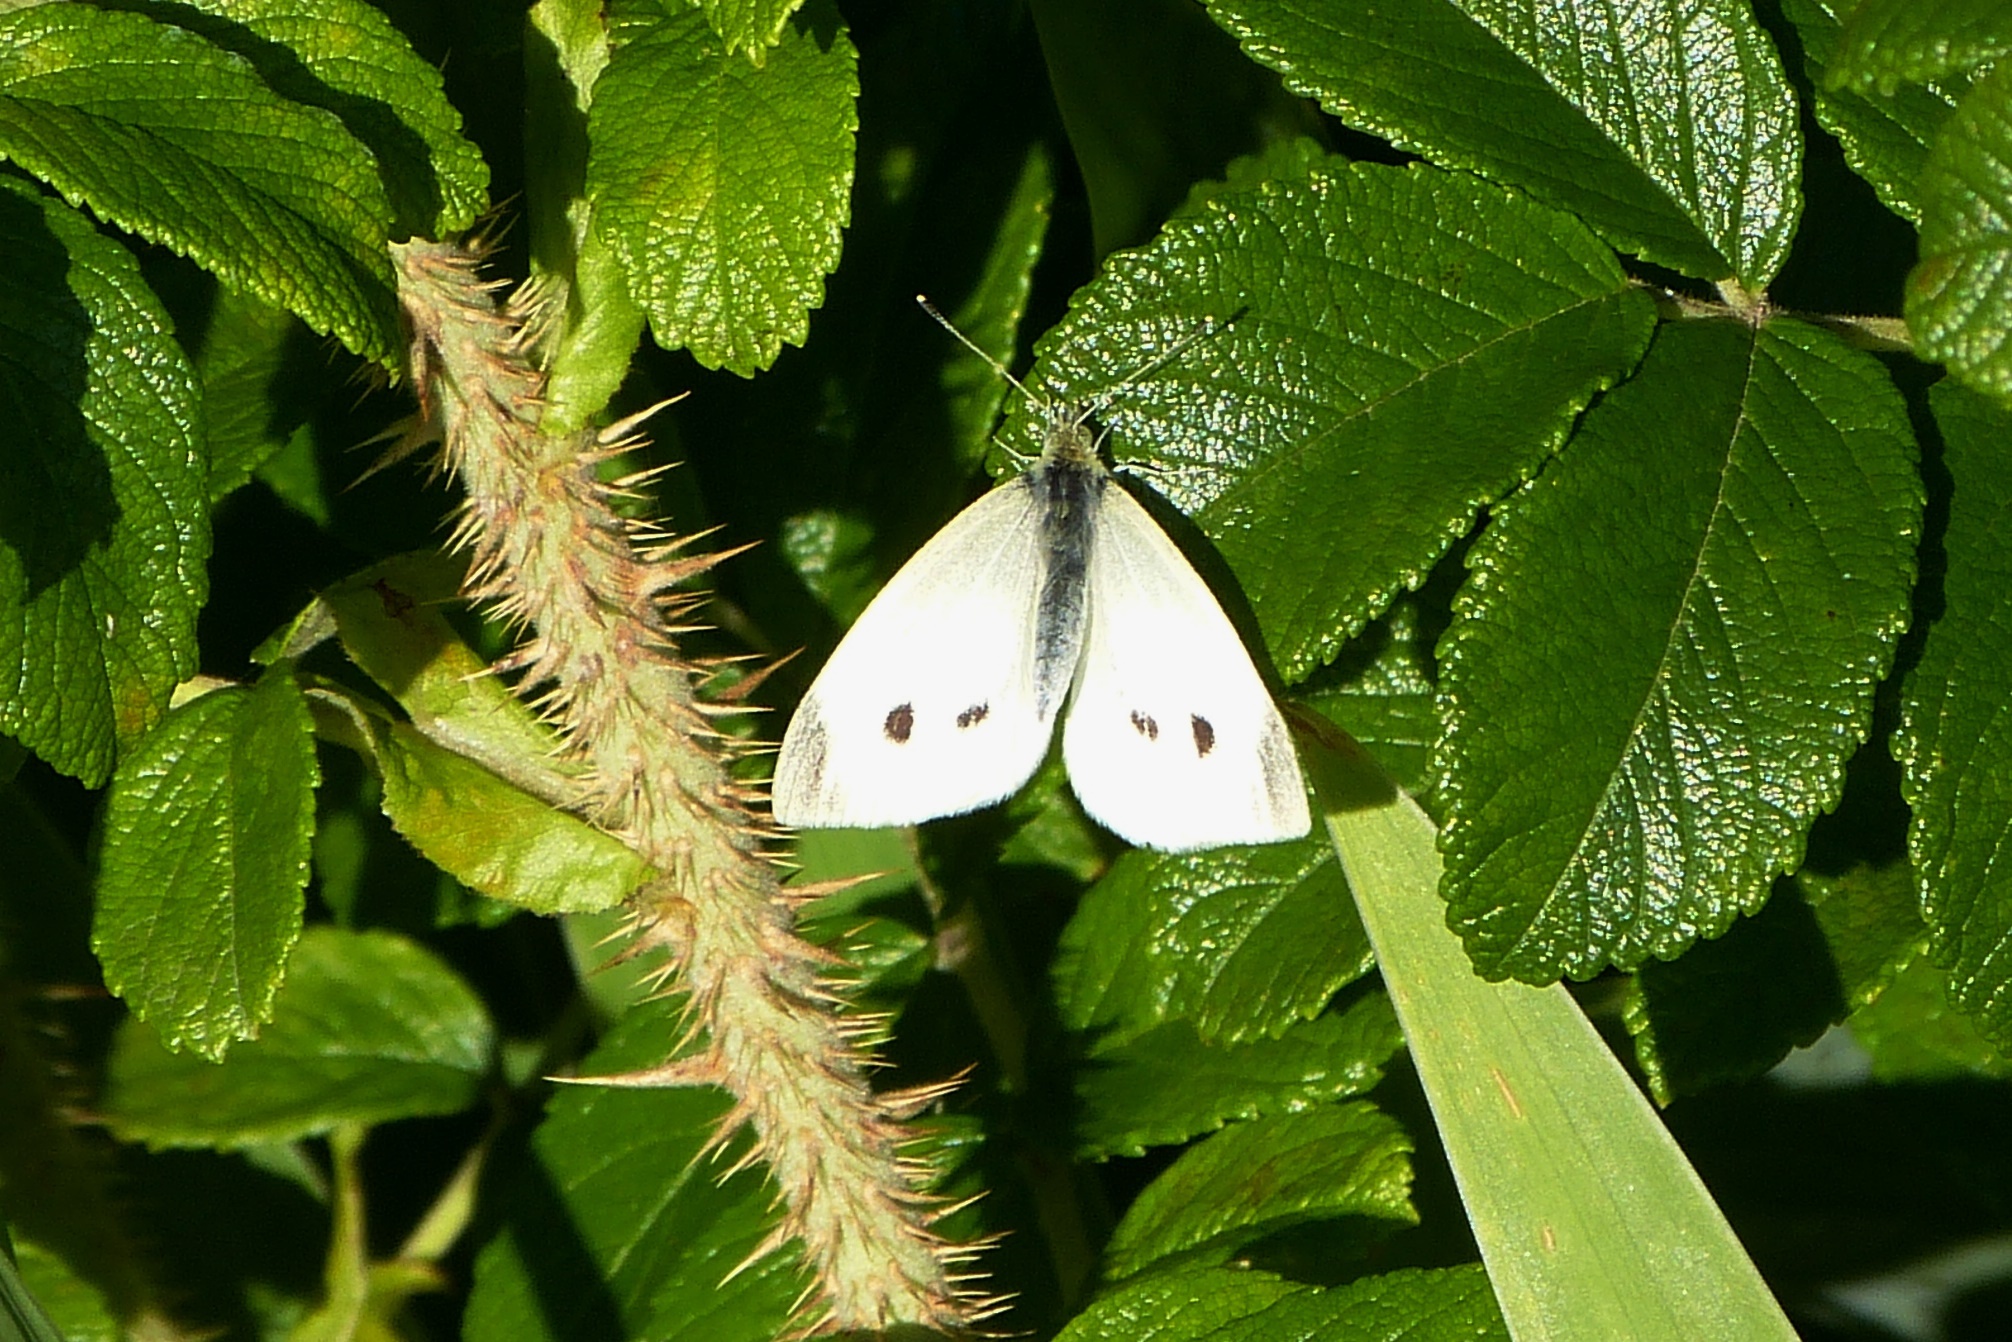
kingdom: Animalia
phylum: Arthropoda
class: Insecta
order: Lepidoptera
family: Pieridae
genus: Pieris
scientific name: Pieris rapae
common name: Small white
